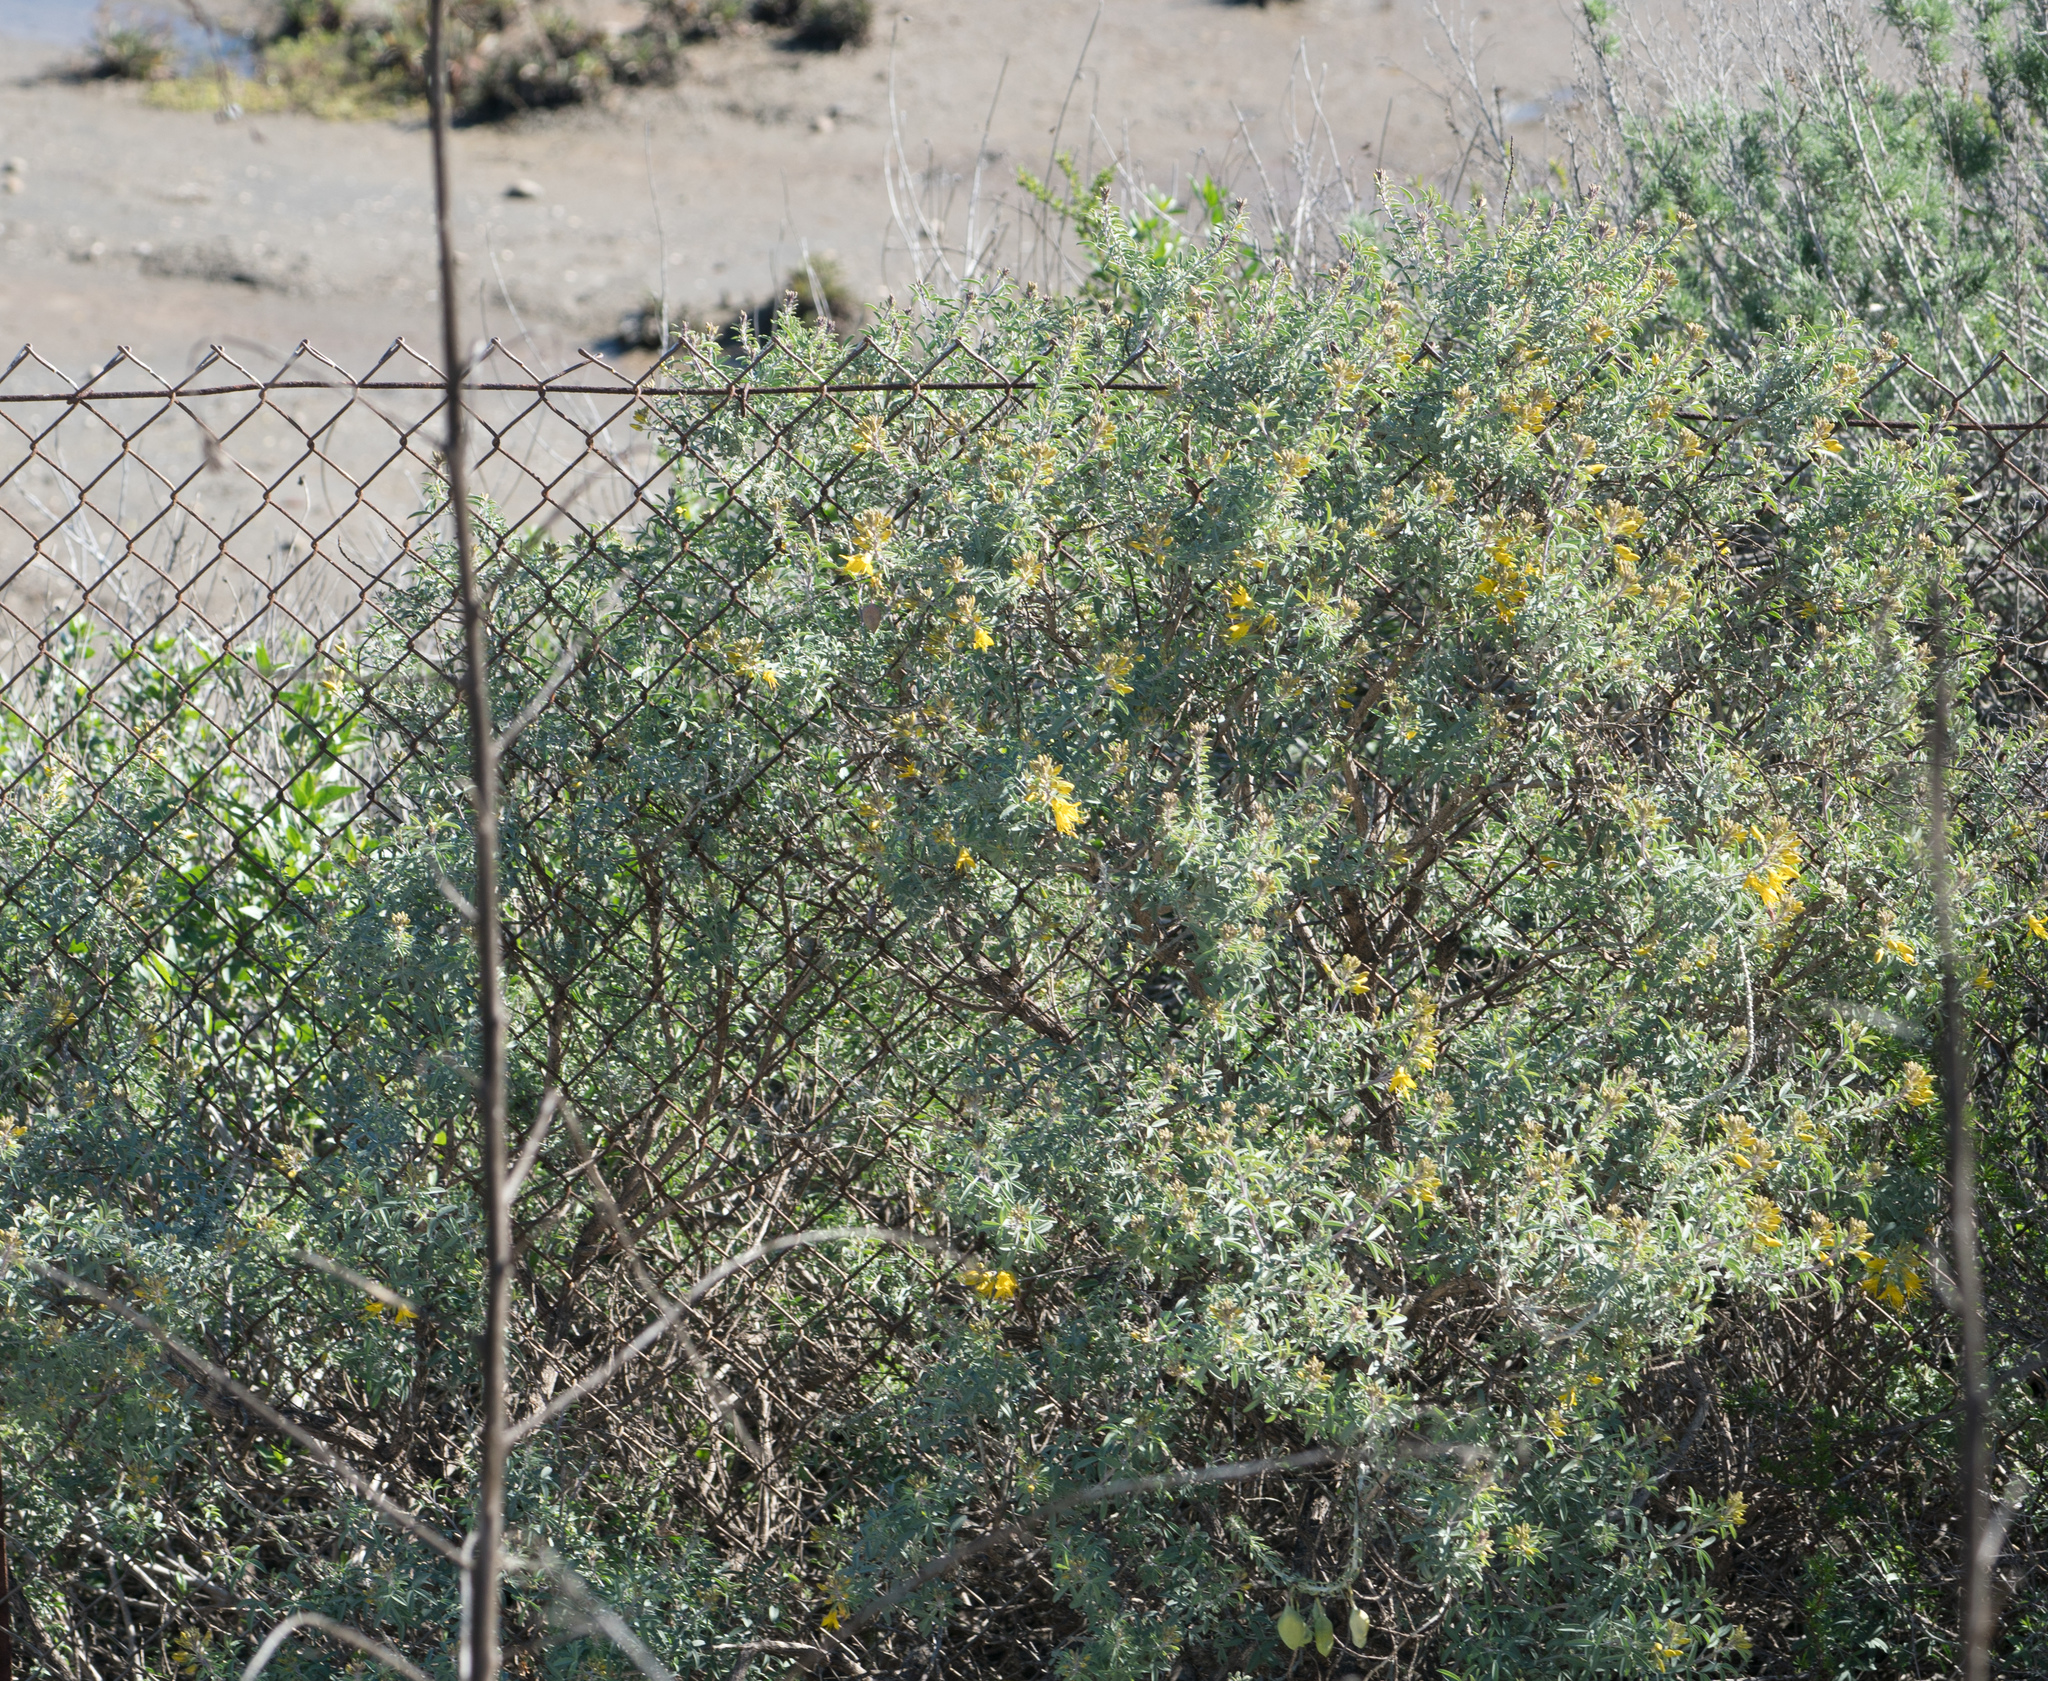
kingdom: Plantae
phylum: Tracheophyta
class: Magnoliopsida
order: Brassicales
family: Cleomaceae
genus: Cleomella
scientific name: Cleomella arborea
